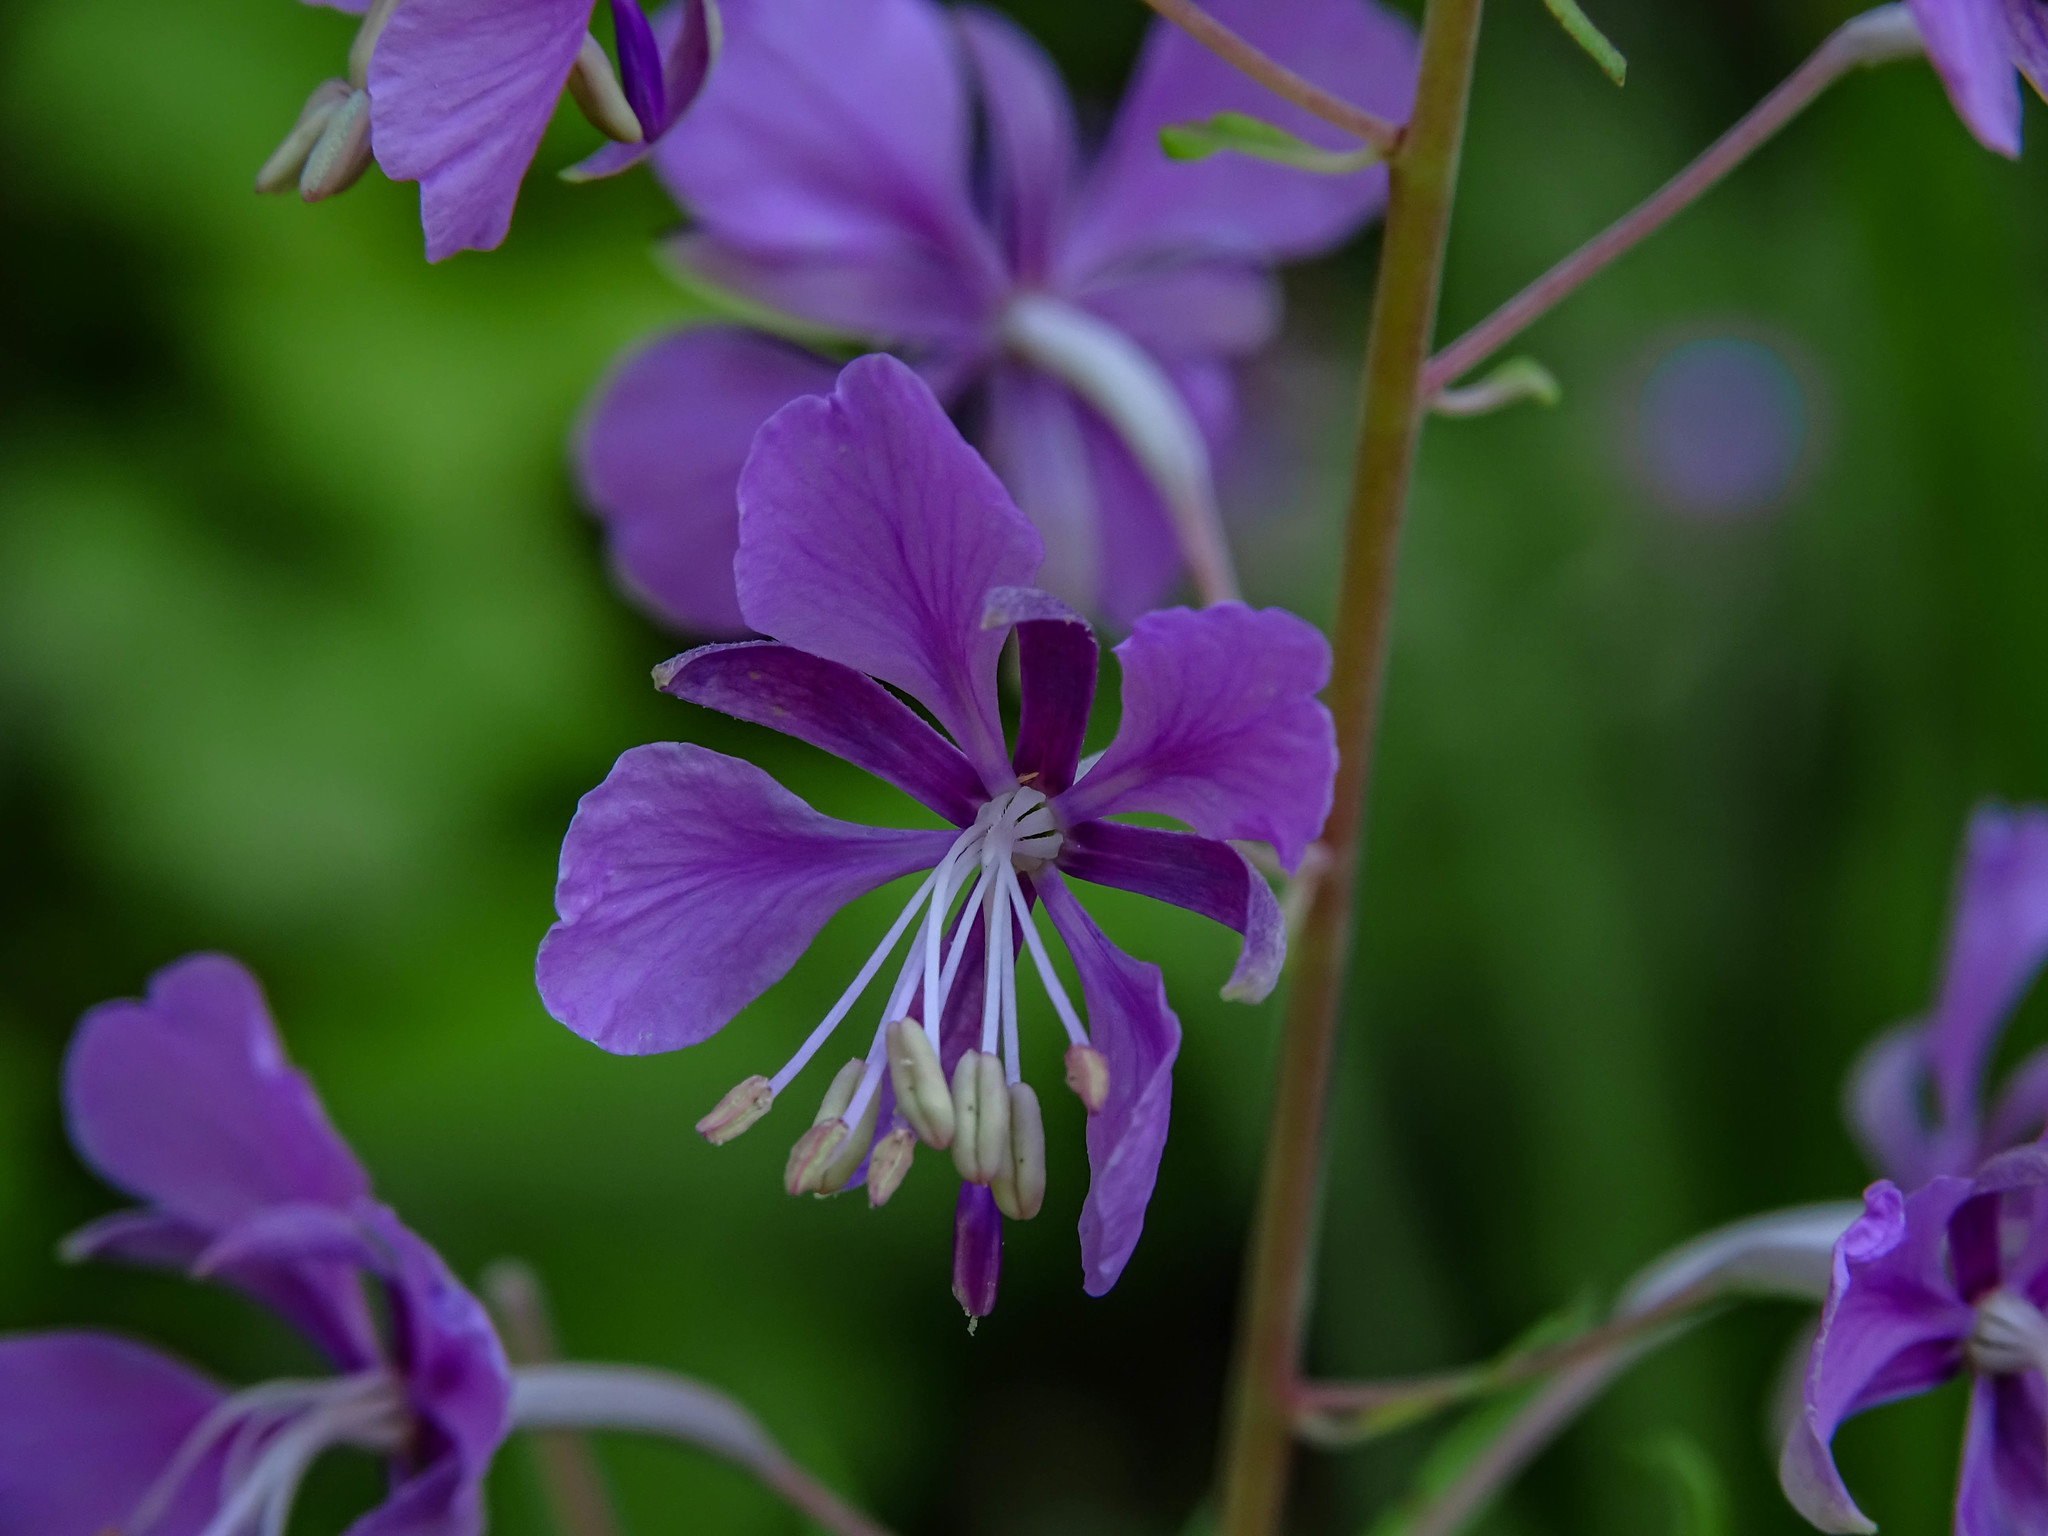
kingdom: Plantae
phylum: Tracheophyta
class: Magnoliopsida
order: Myrtales
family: Onagraceae
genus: Chamaenerion
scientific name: Chamaenerion angustifolium
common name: Fireweed
